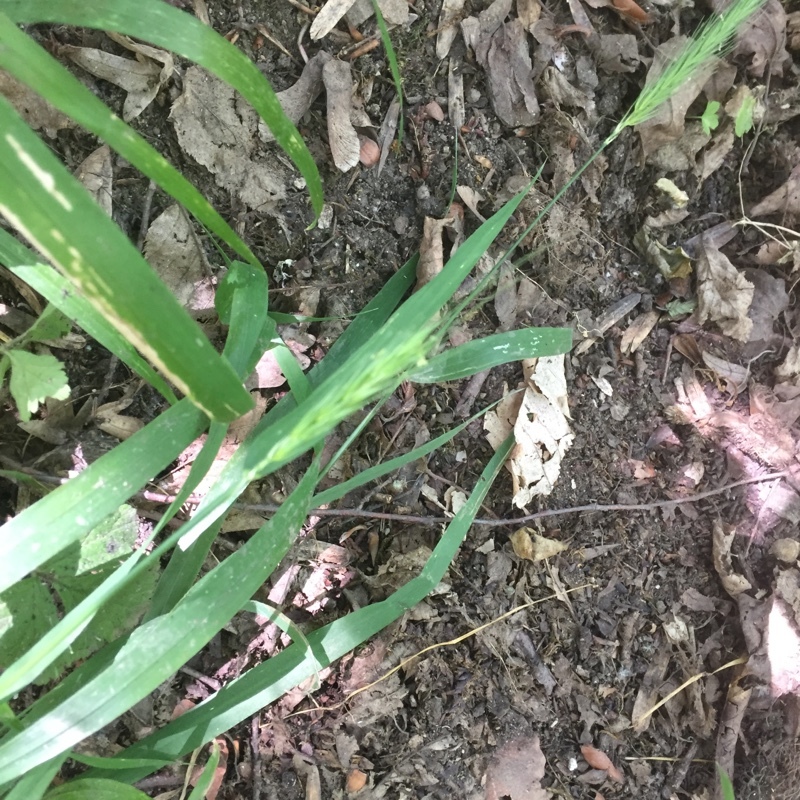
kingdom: Plantae
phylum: Tracheophyta
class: Liliopsida
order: Poales
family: Poaceae
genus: Hordelymus
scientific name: Hordelymus europaeus
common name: Wood-barley
